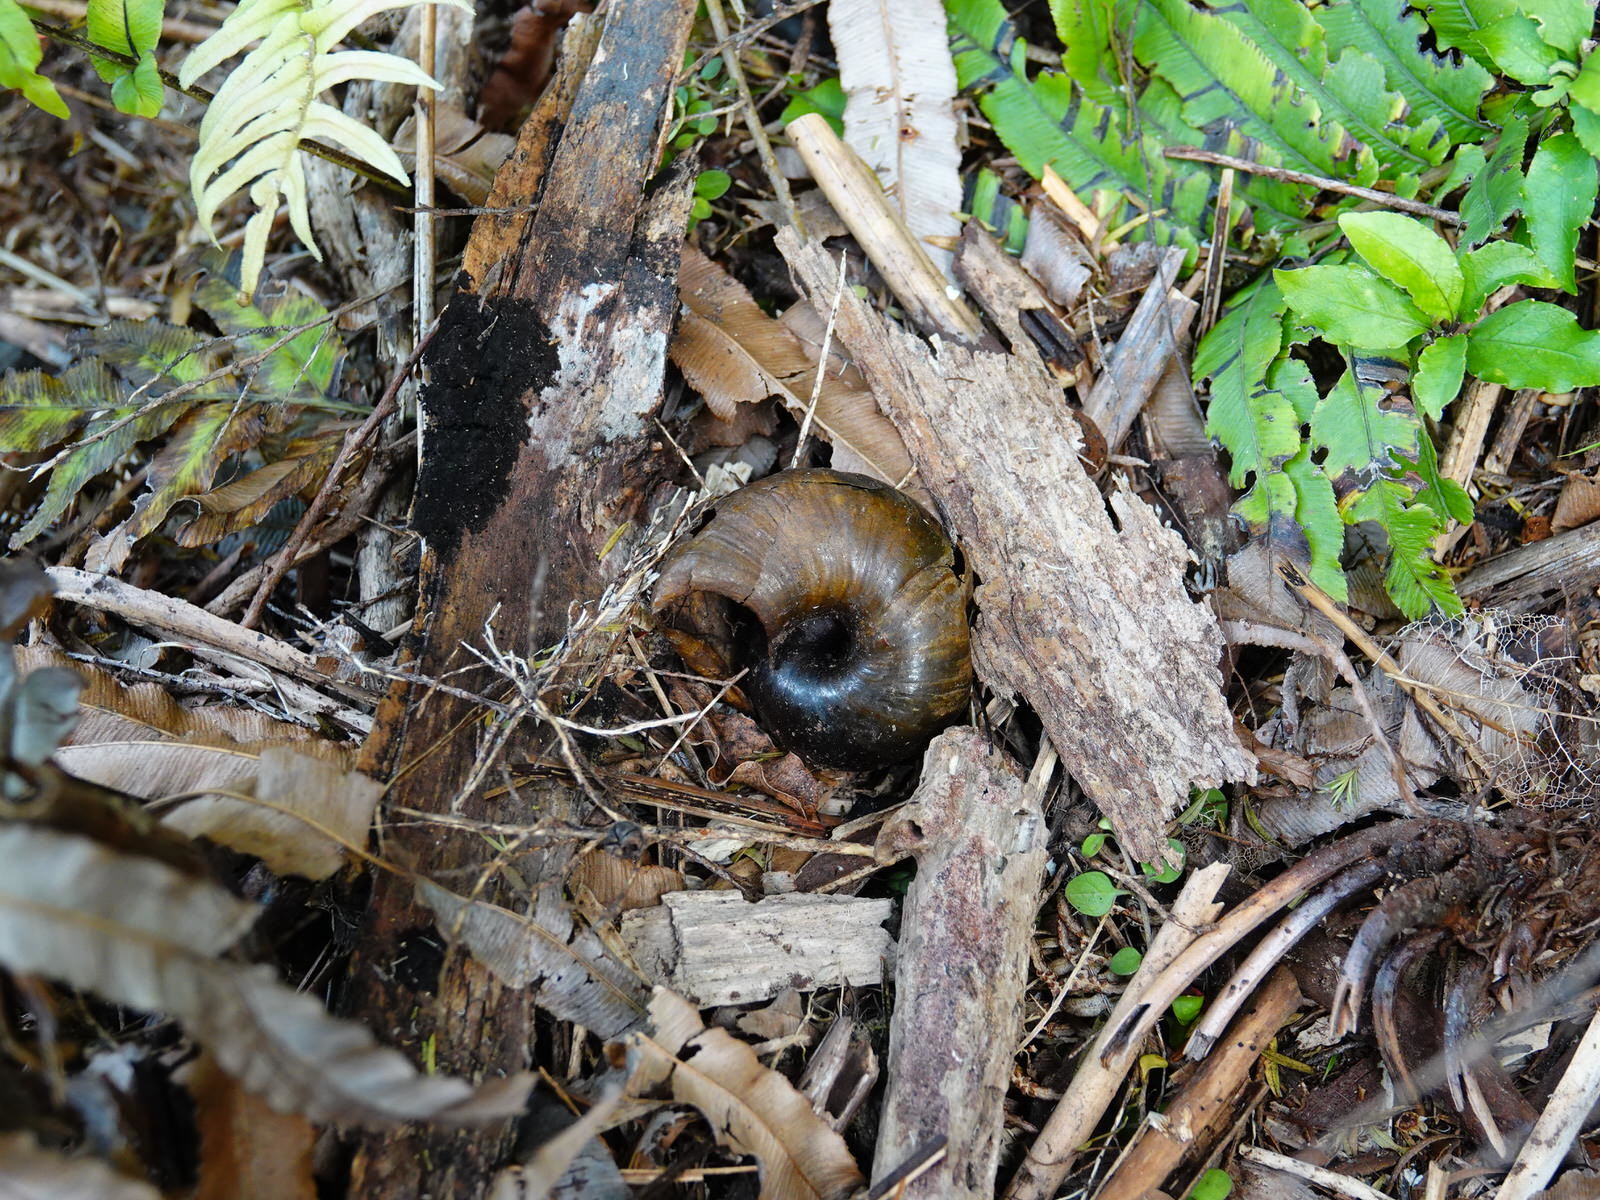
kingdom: Animalia
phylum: Mollusca
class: Gastropoda
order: Stylommatophora
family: Rhytididae
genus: Paryphanta
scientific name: Paryphanta busbyi
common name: Kauri snail
